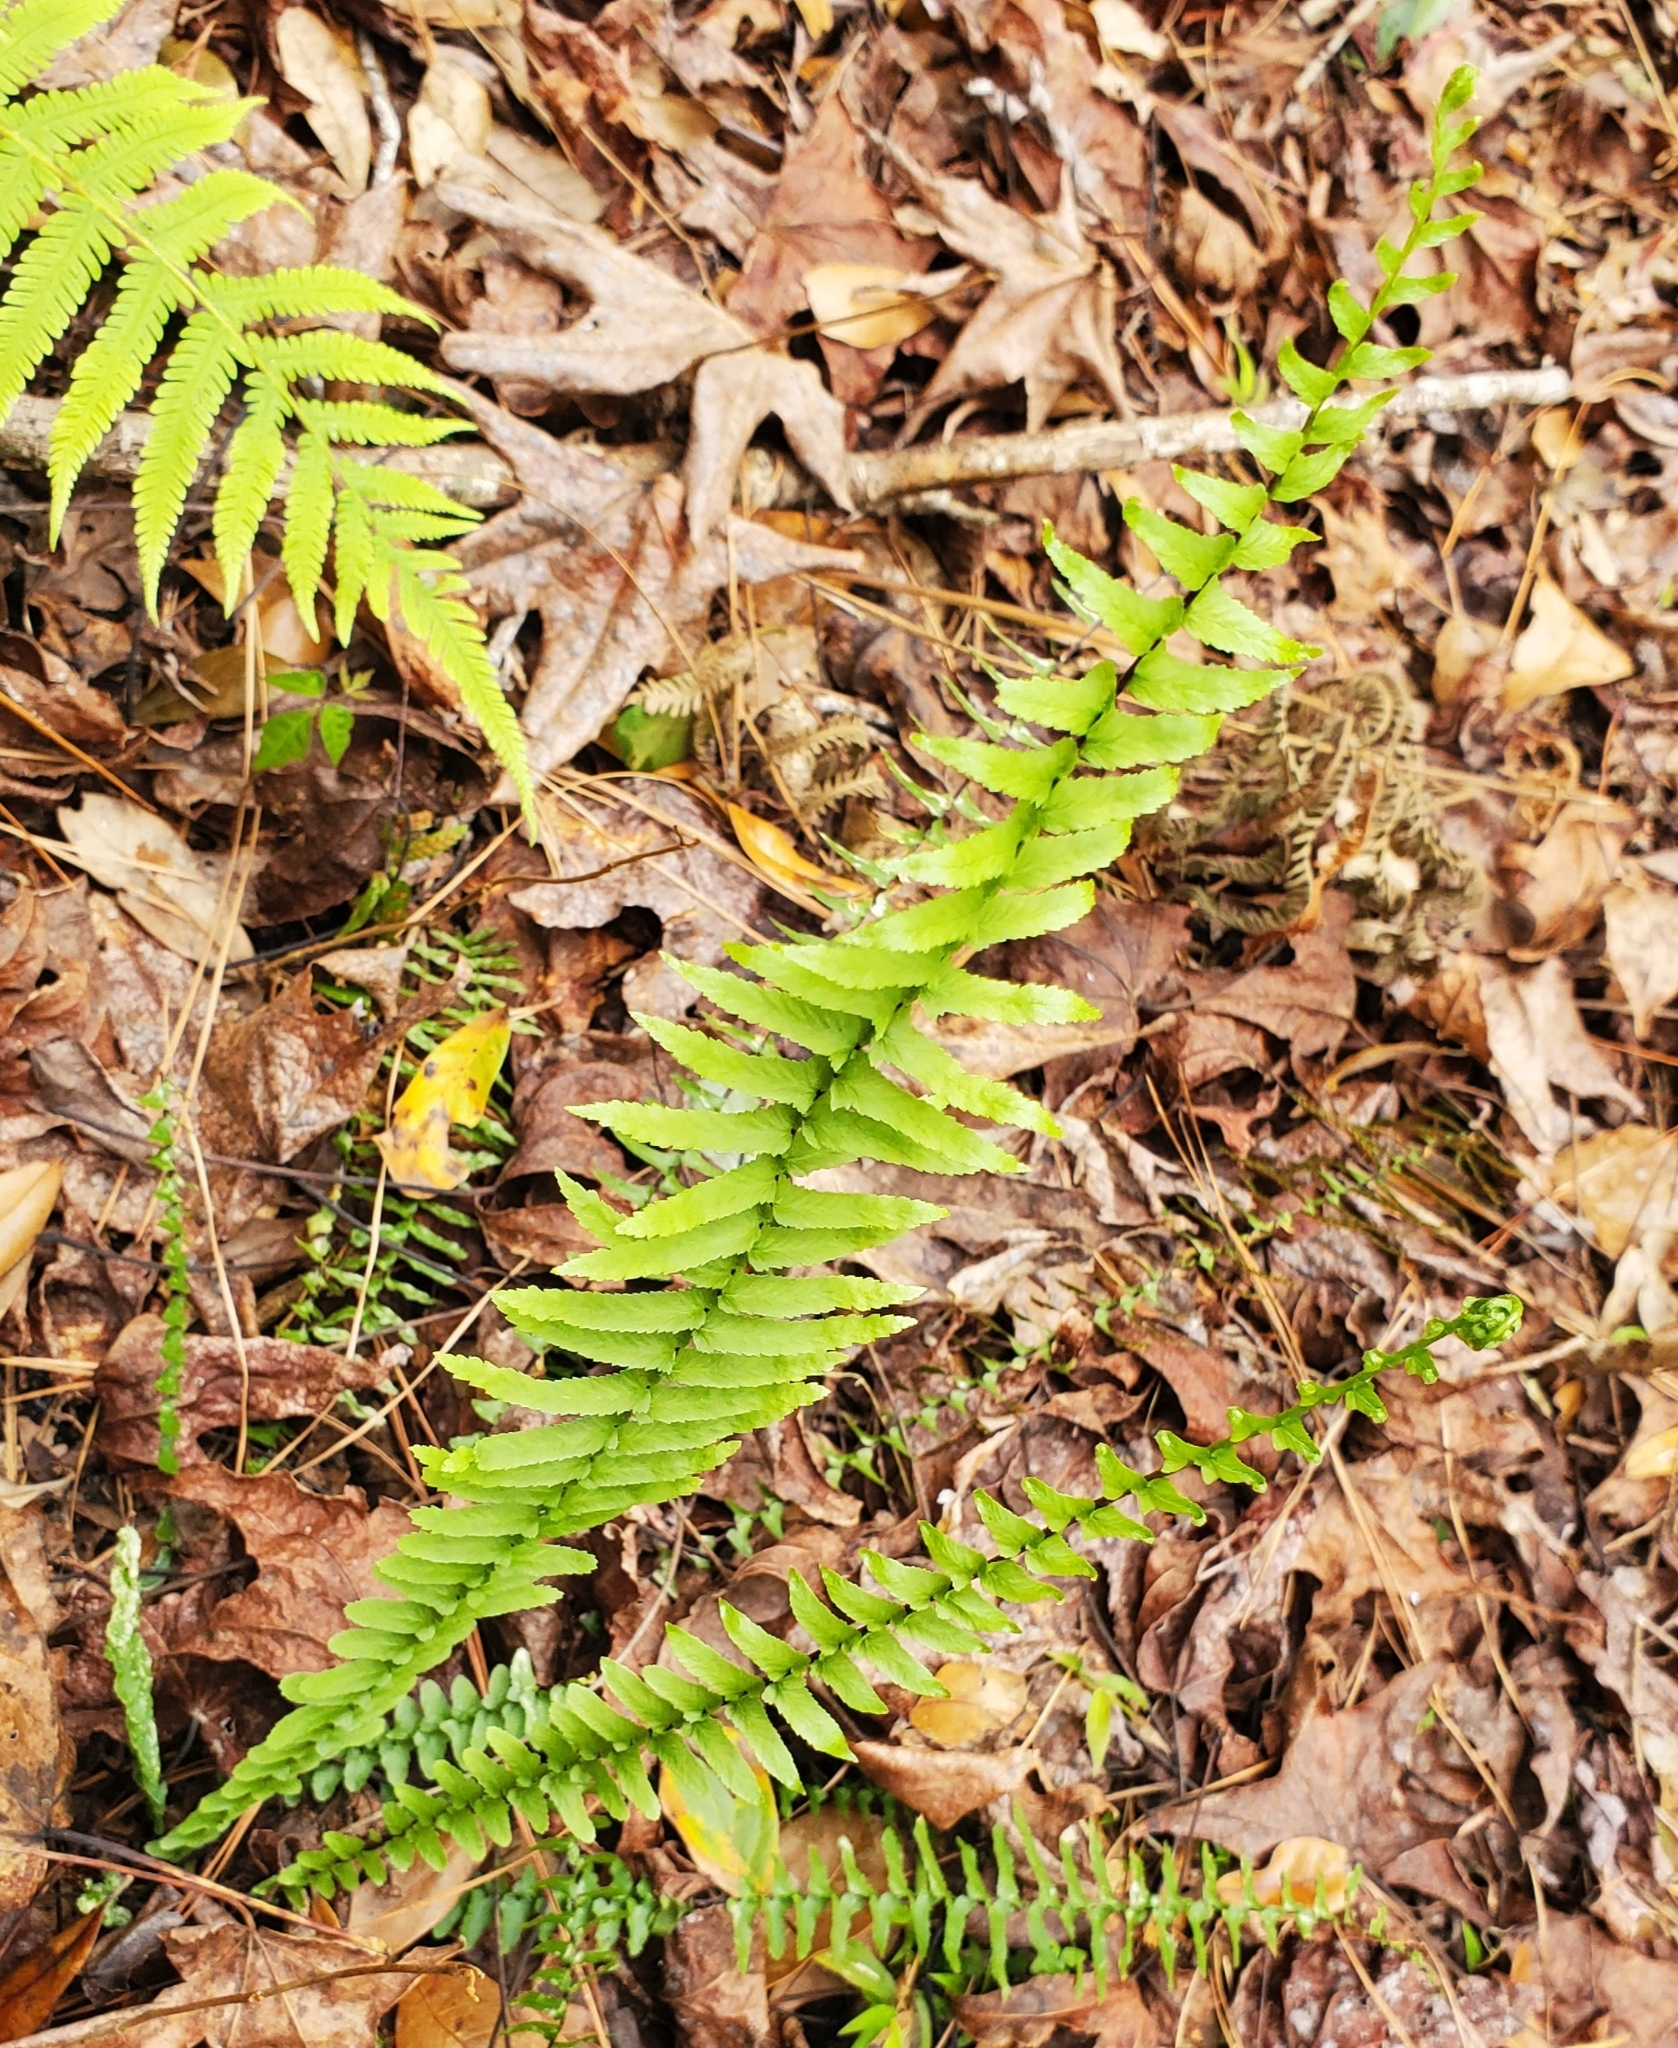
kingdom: Plantae
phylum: Tracheophyta
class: Polypodiopsida
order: Polypodiales
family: Aspleniaceae
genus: Asplenium
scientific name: Asplenium platyneuron
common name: Ebony spleenwort
